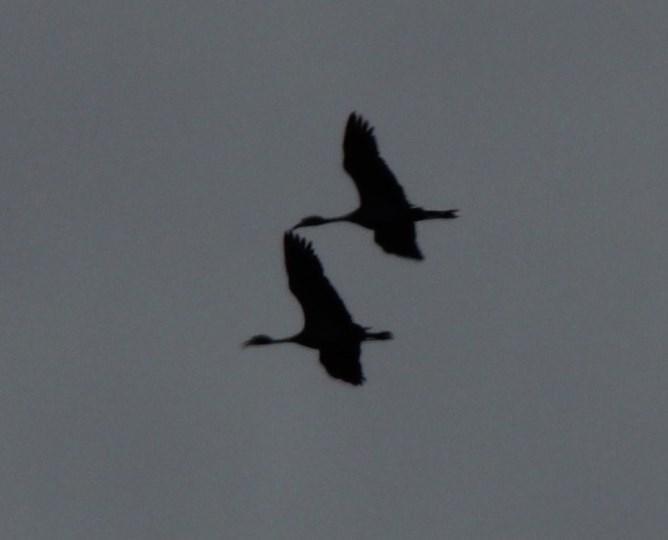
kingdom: Animalia
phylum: Chordata
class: Aves
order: Gruiformes
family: Gruidae
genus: Anthropoides
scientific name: Anthropoides paradiseus
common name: Blue crane
